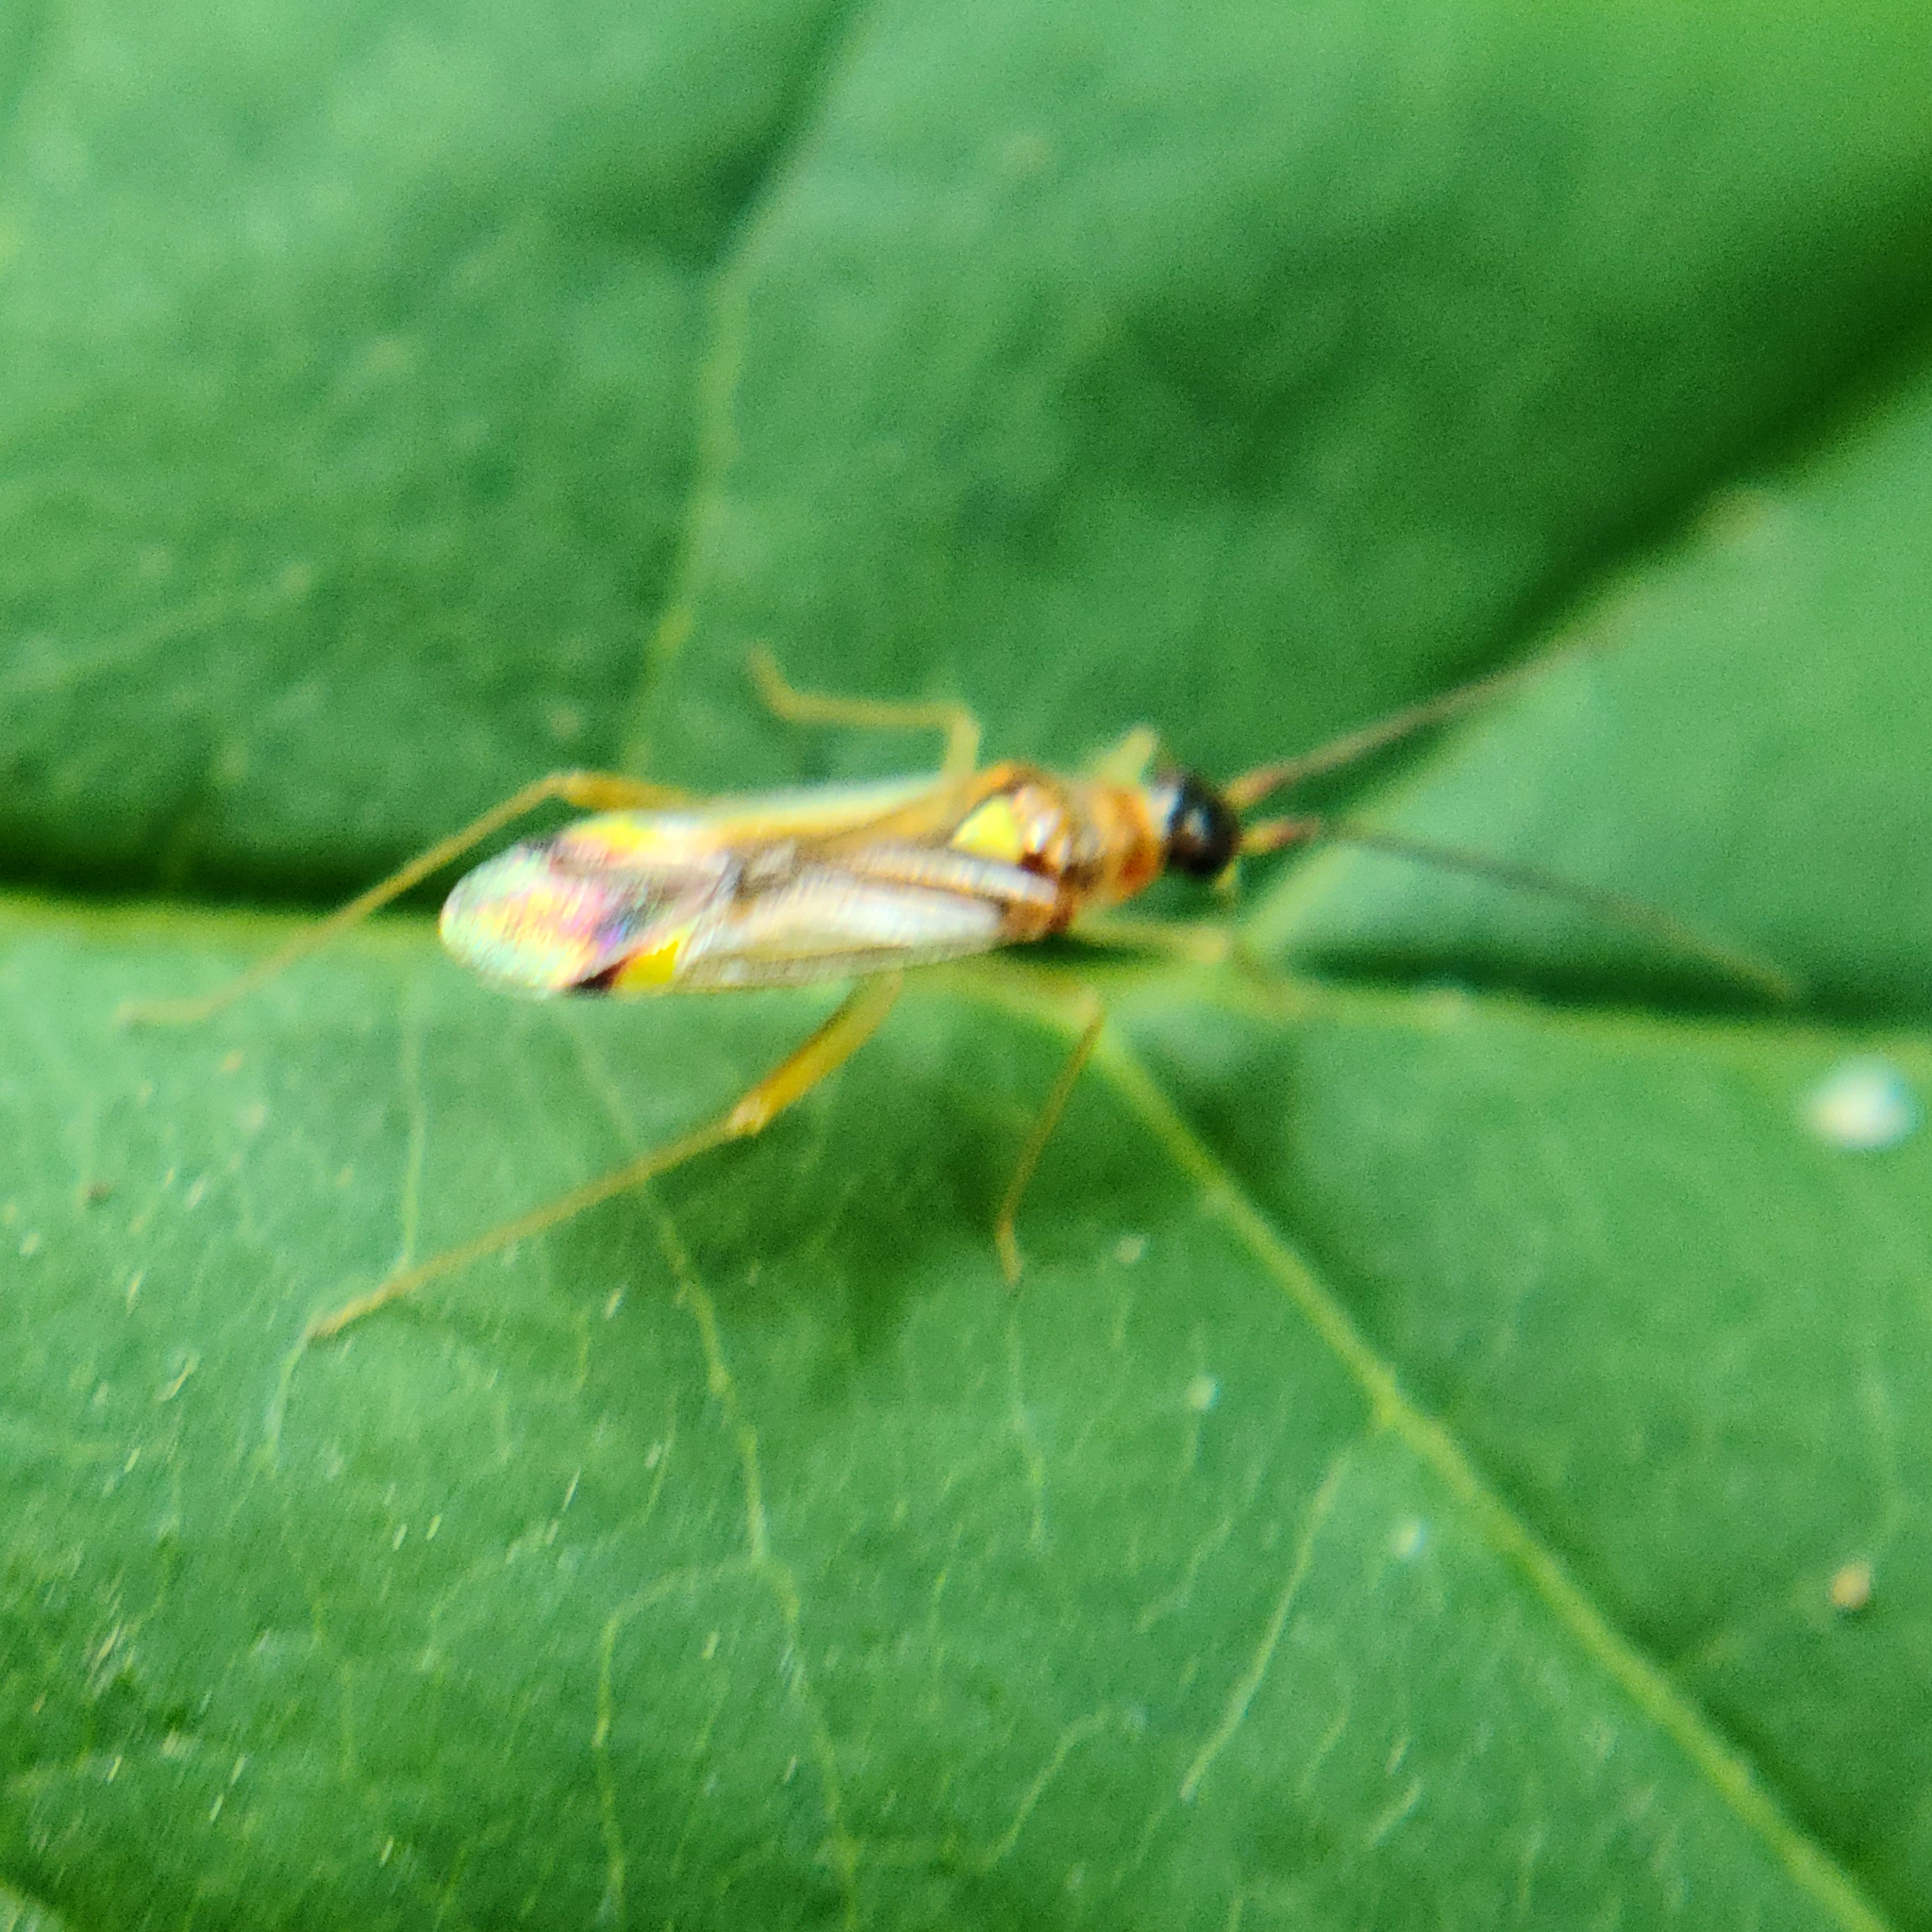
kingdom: Animalia
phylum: Arthropoda
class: Insecta
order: Hemiptera
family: Miridae
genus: Campyloneura
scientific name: Campyloneura virgula
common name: Predatory bug
